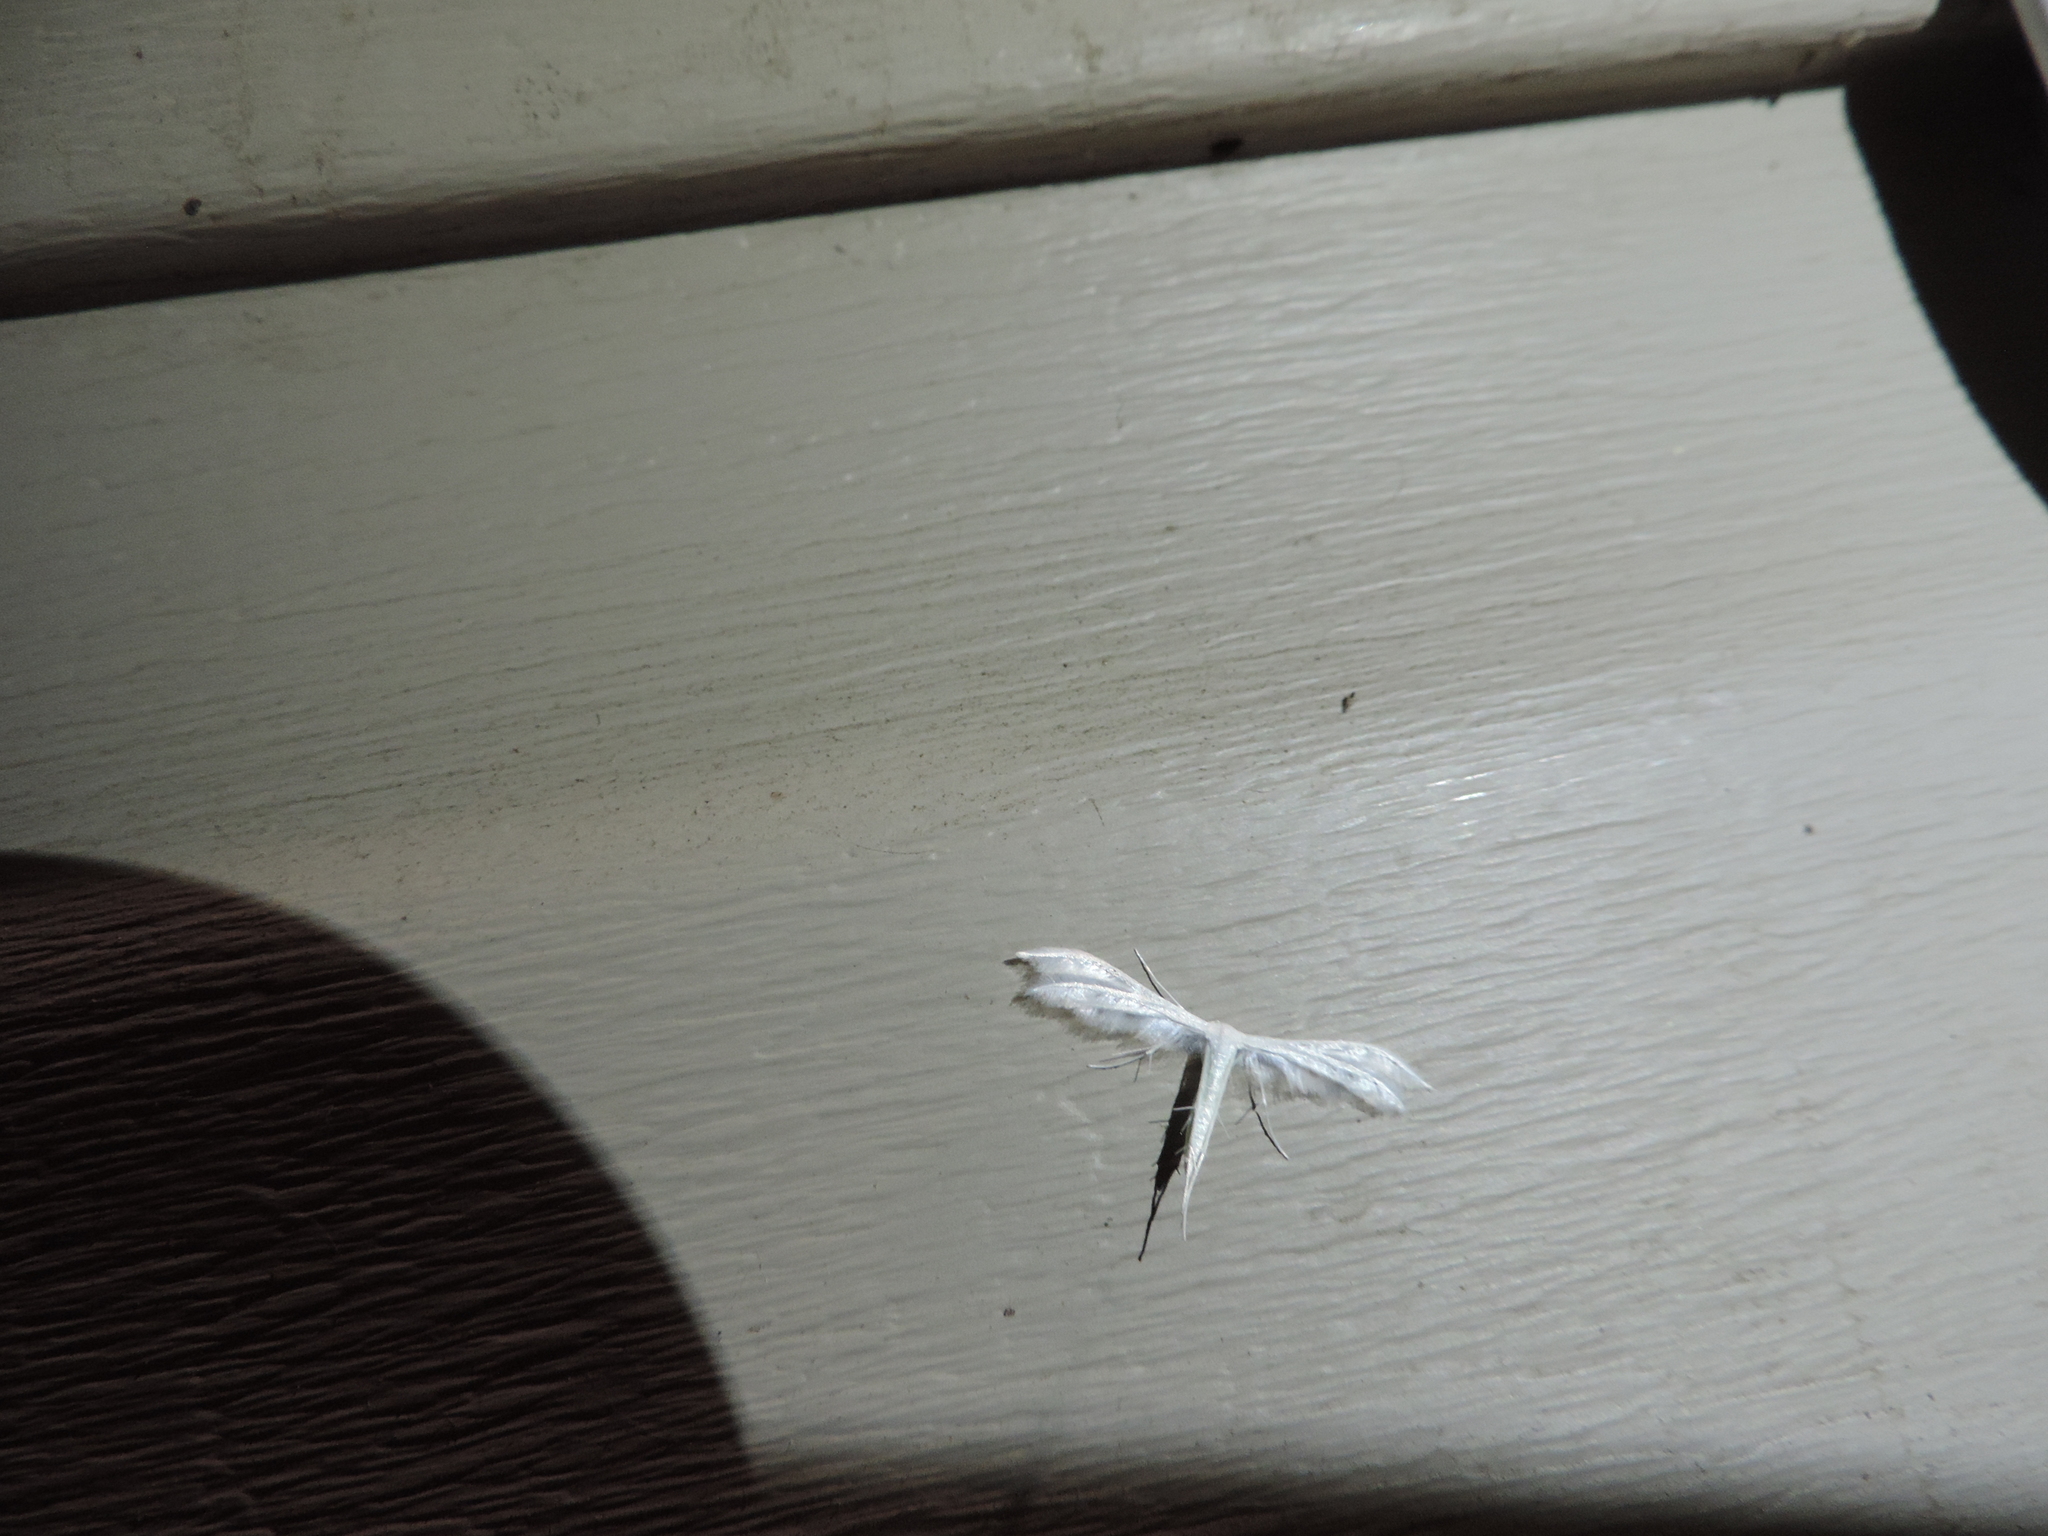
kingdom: Animalia
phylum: Arthropoda
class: Insecta
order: Lepidoptera
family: Pterophoridae
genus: Pterophorus
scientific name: Pterophorus pentadactyla
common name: White plume moth
